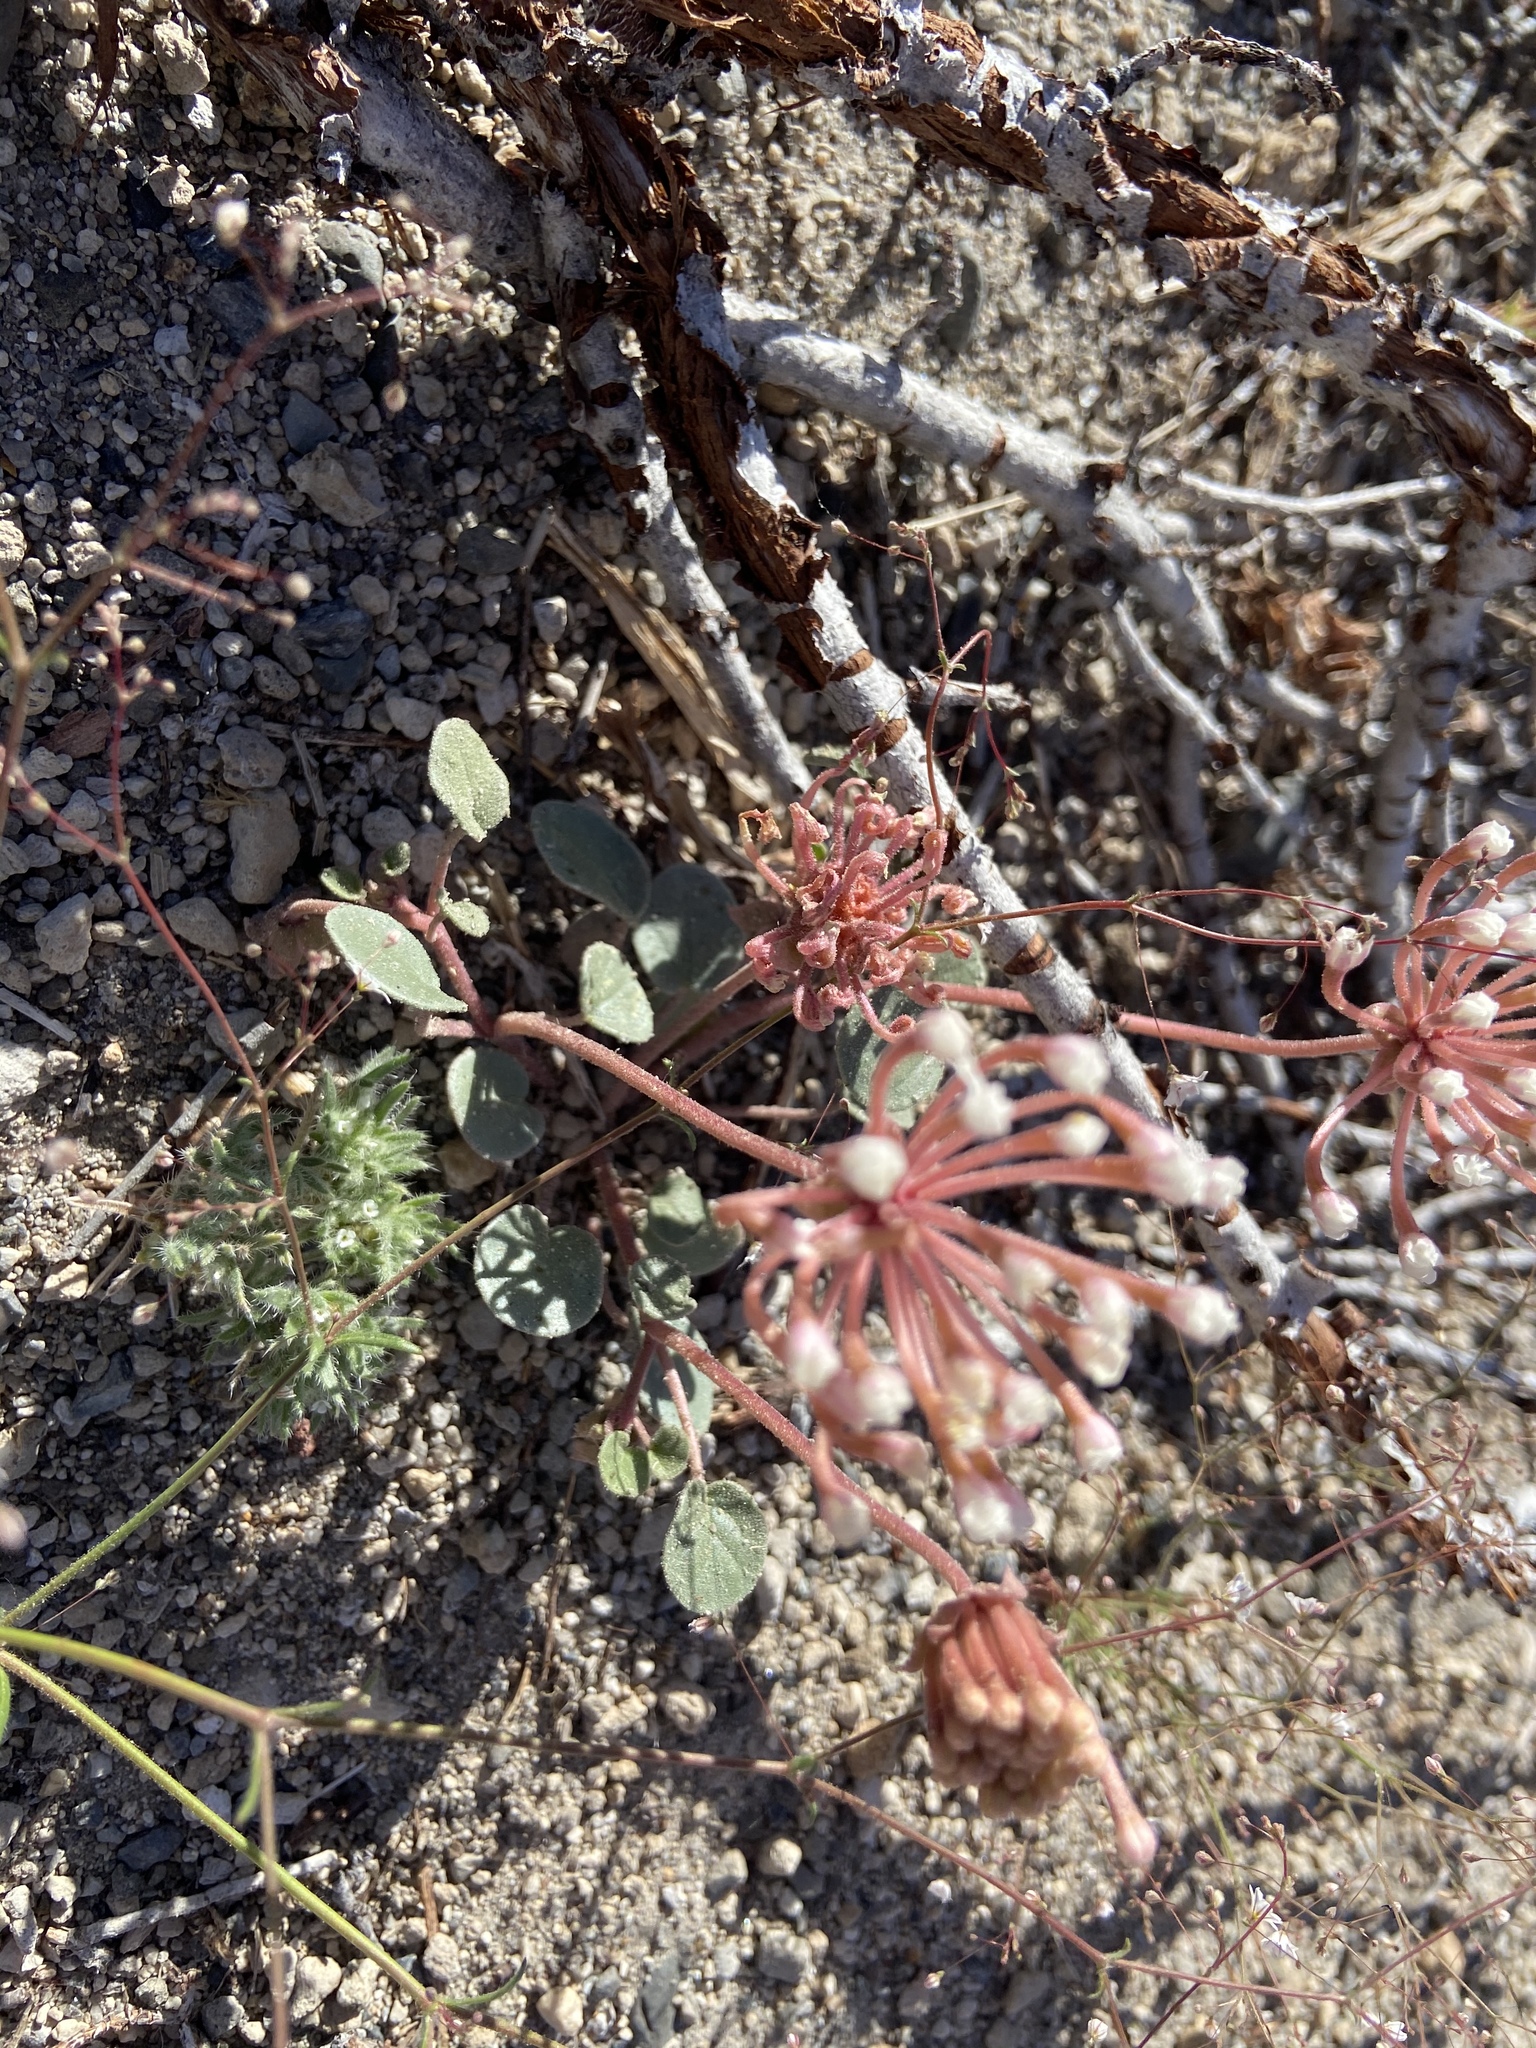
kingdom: Plantae
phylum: Tracheophyta
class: Magnoliopsida
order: Caryophyllales
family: Nyctaginaceae
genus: Abronia
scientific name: Abronia turbinata
